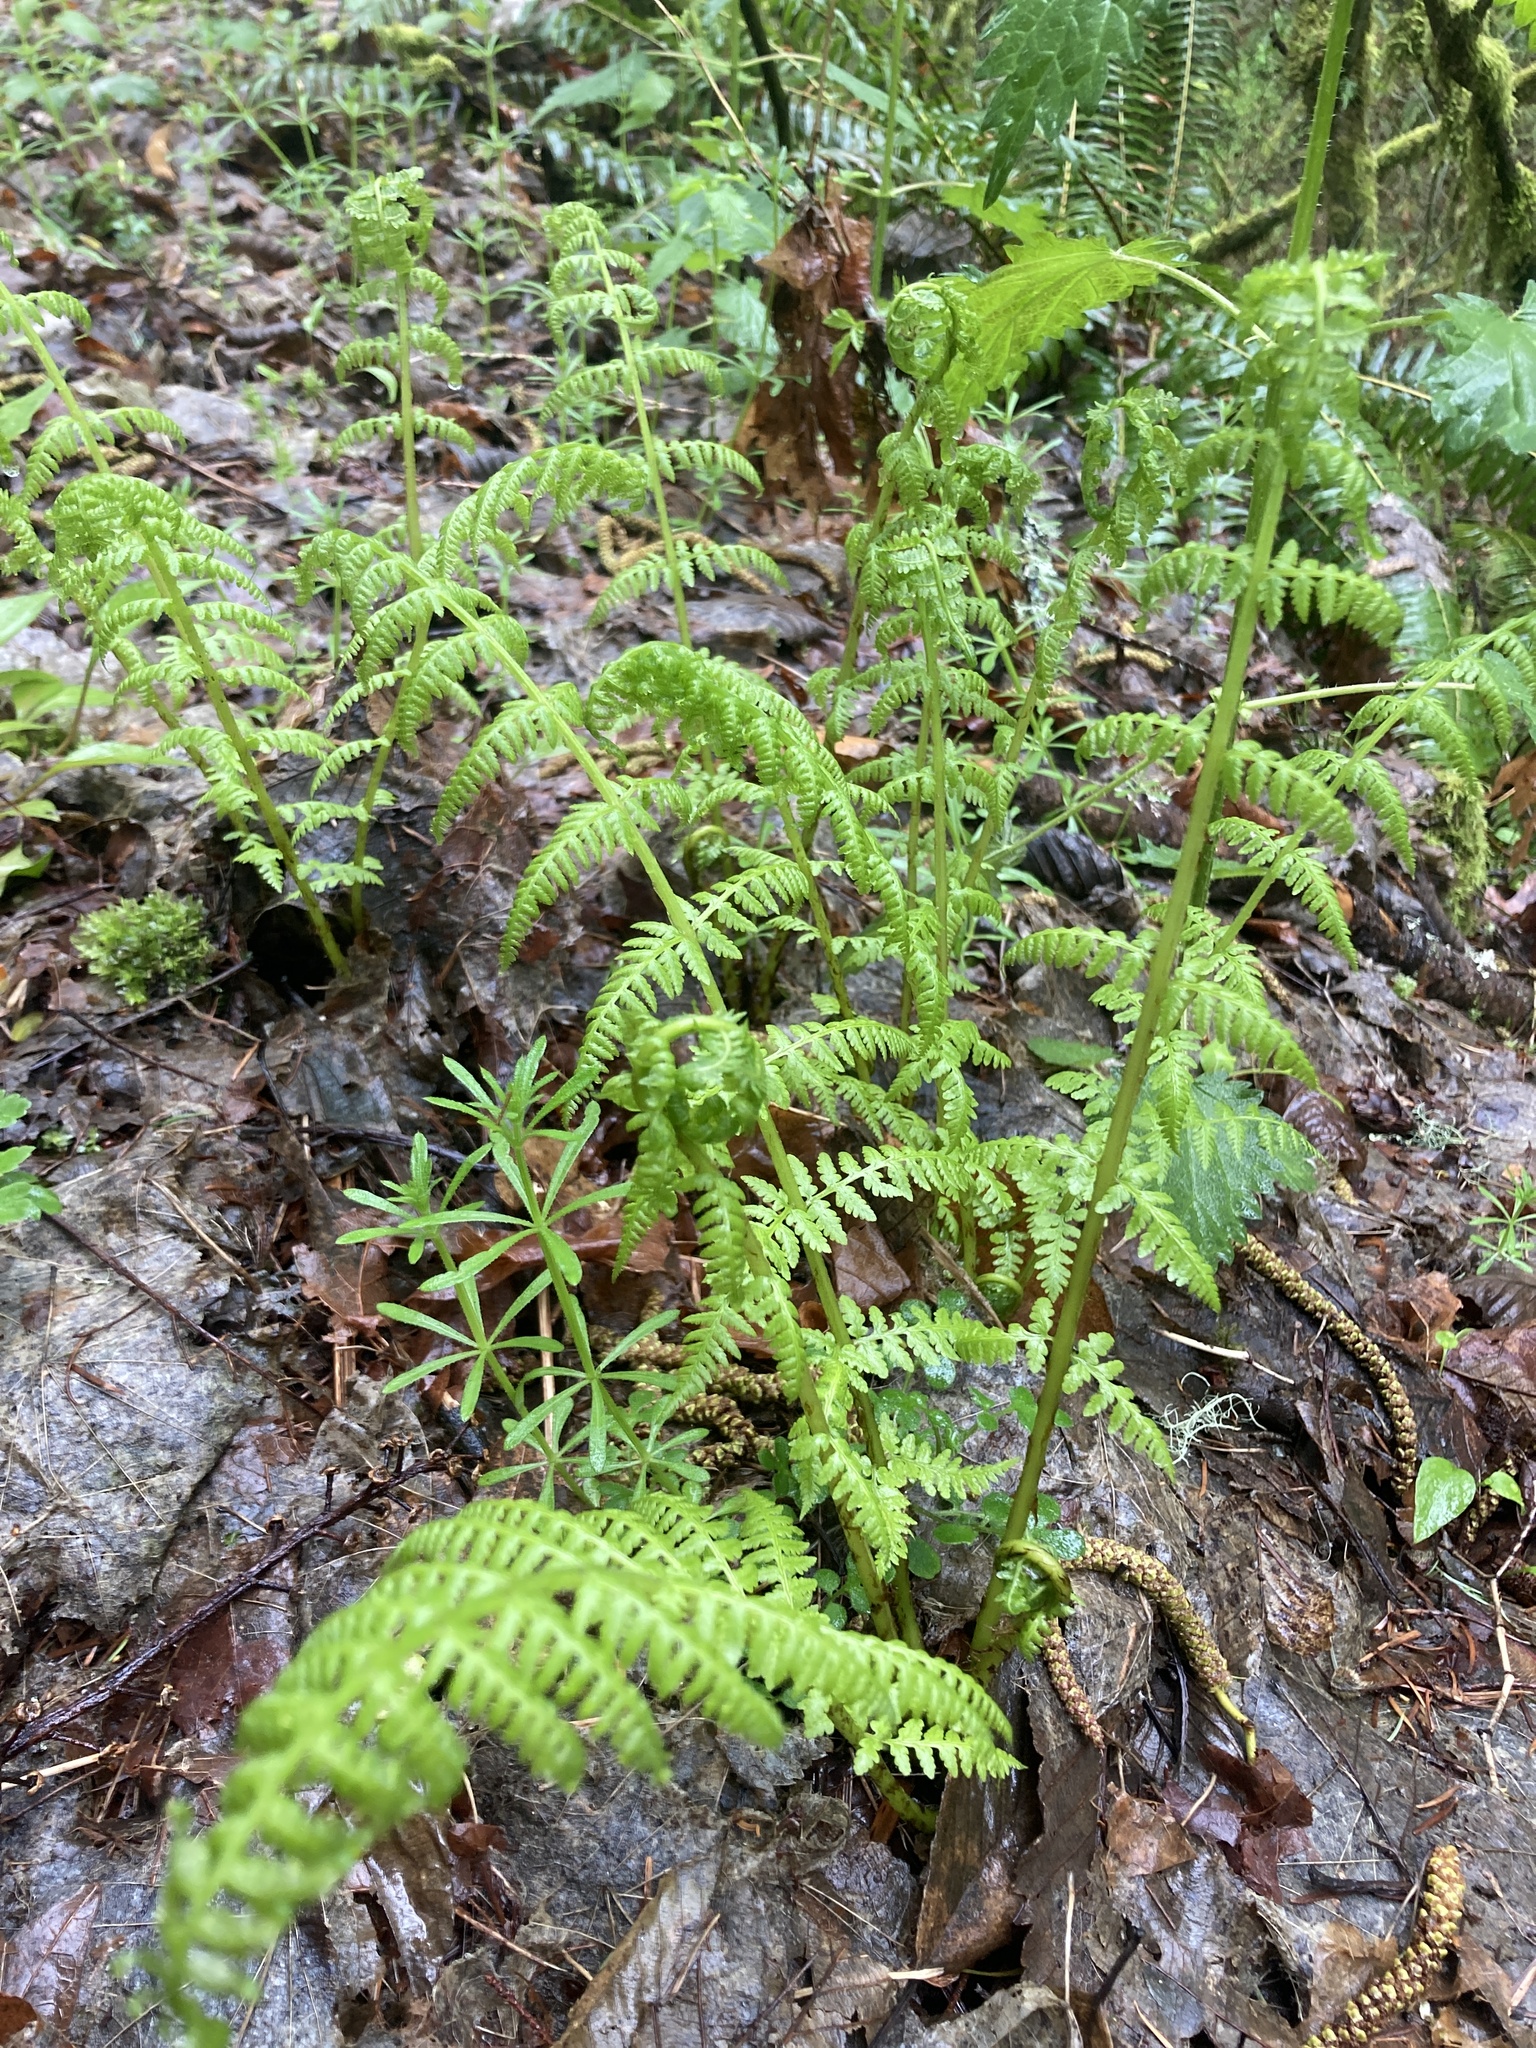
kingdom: Plantae
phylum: Tracheophyta
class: Polypodiopsida
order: Polypodiales
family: Athyriaceae
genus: Athyrium
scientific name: Athyrium filix-femina
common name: Lady fern
